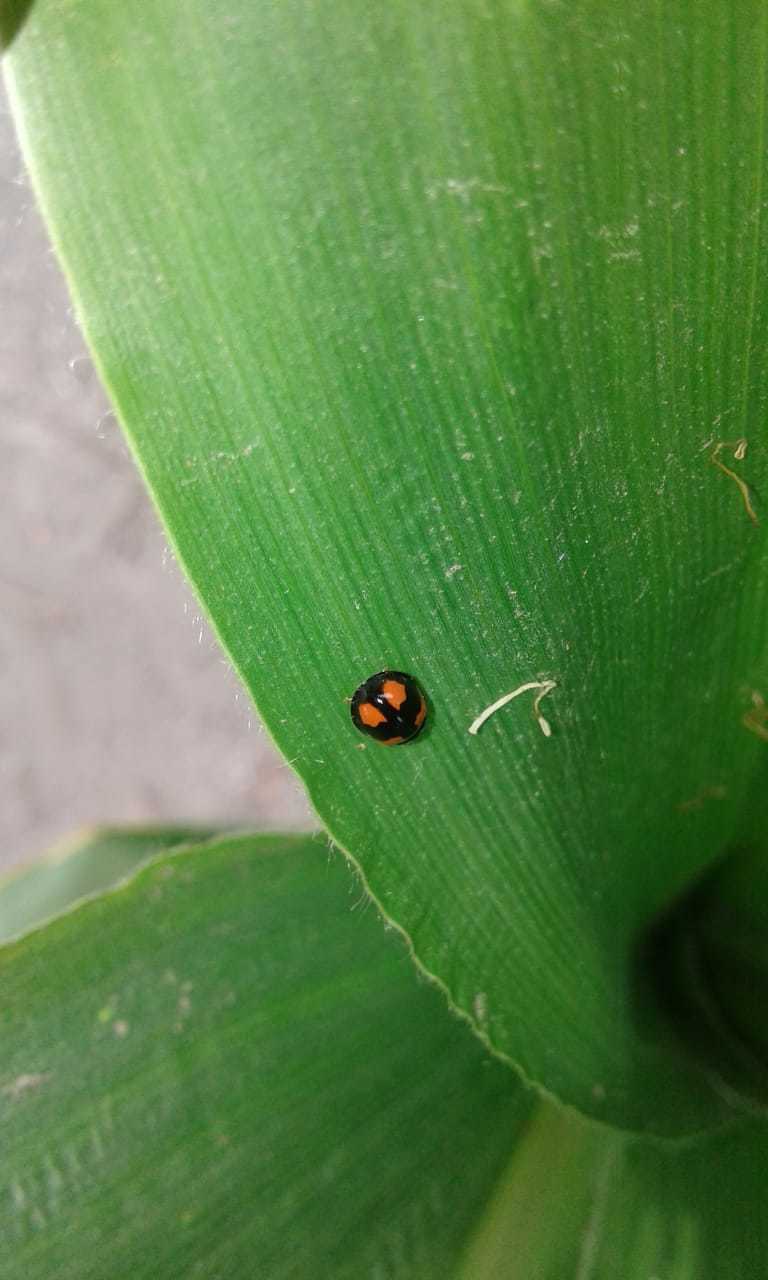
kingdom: Animalia
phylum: Arthropoda
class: Insecta
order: Coleoptera
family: Coccinellidae
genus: Cheilomenes
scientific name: Cheilomenes sexmaculata
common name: Ladybird beetle
